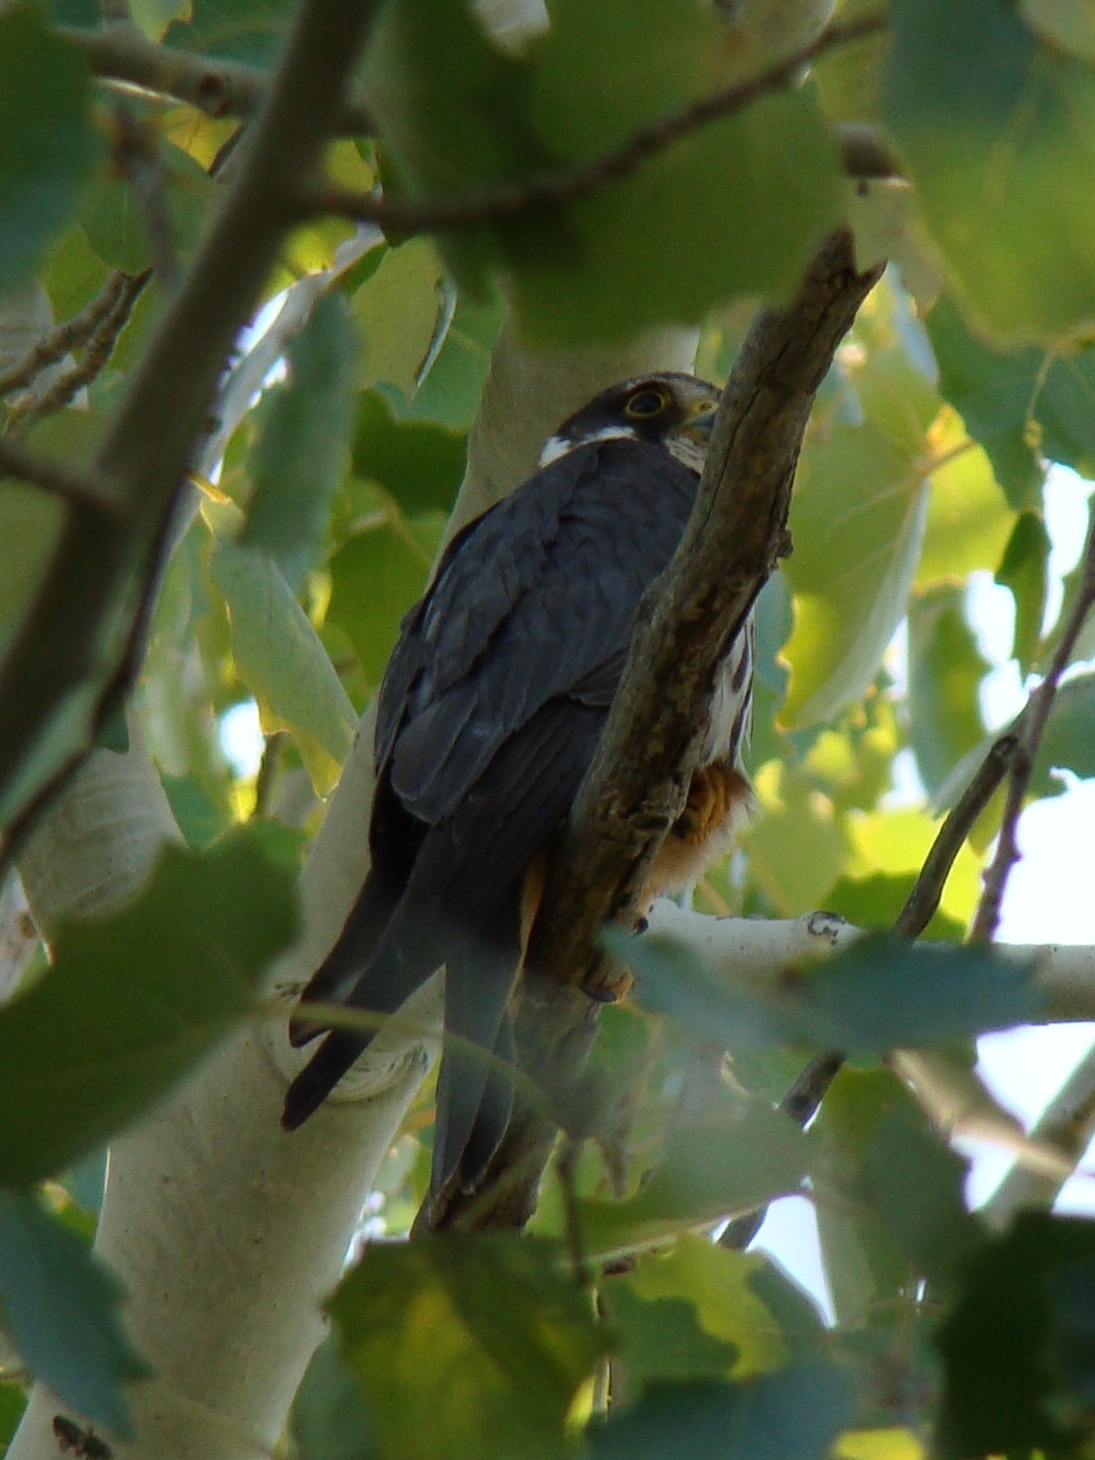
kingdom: Animalia
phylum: Chordata
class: Aves
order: Falconiformes
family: Falconidae
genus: Falco
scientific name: Falco subbuteo
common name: Eurasian hobby
